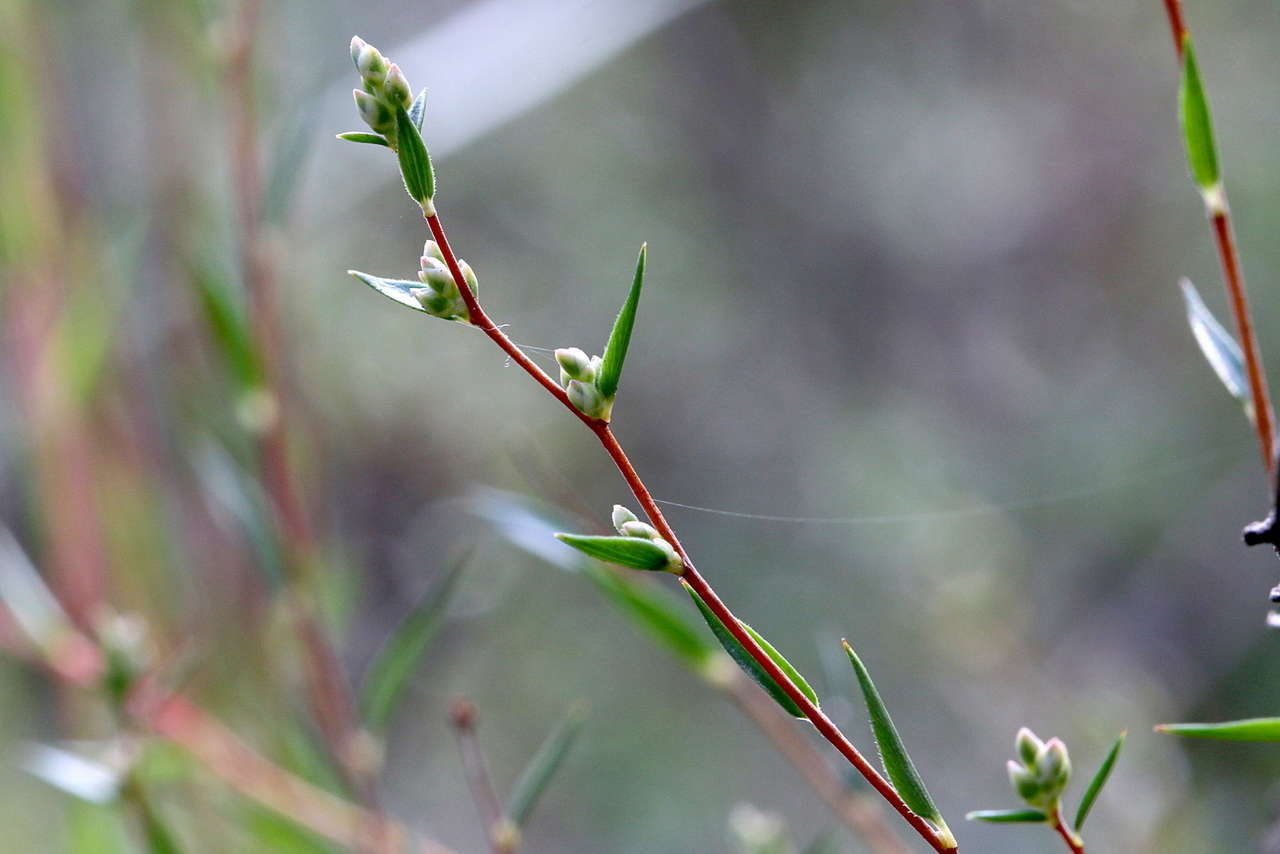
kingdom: Plantae
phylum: Tracheophyta
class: Magnoliopsida
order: Ericales
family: Ericaceae
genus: Leucopogon
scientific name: Leucopogon virgatus
